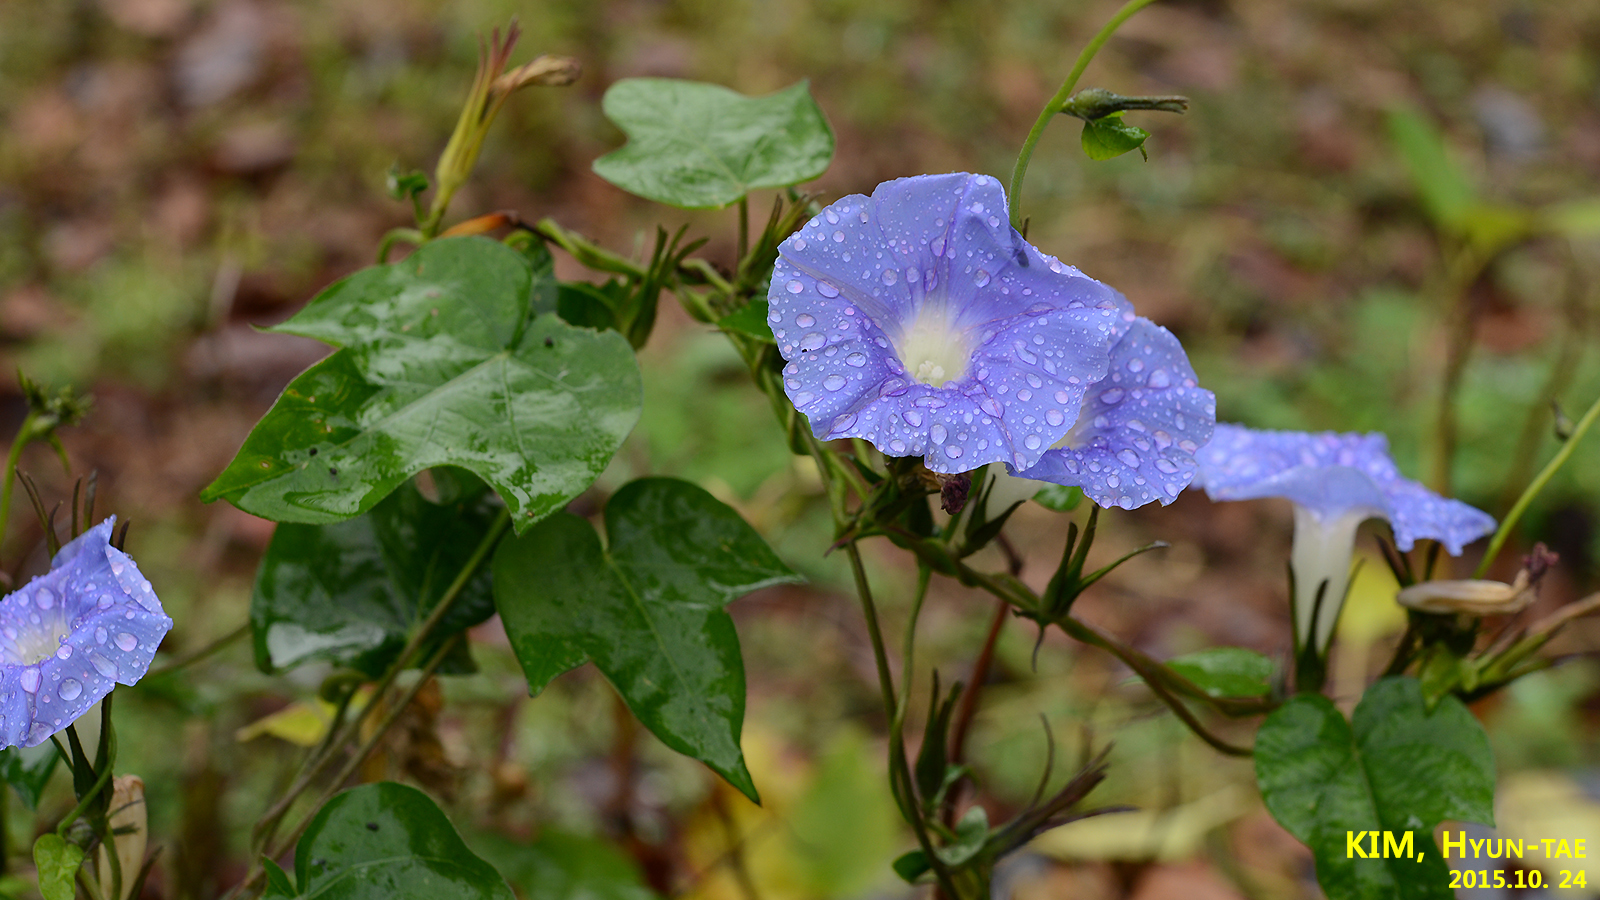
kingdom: Plantae
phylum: Tracheophyta
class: Magnoliopsida
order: Solanales
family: Convolvulaceae
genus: Ipomoea
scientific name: Ipomoea nil
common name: Japanese morning-glory
